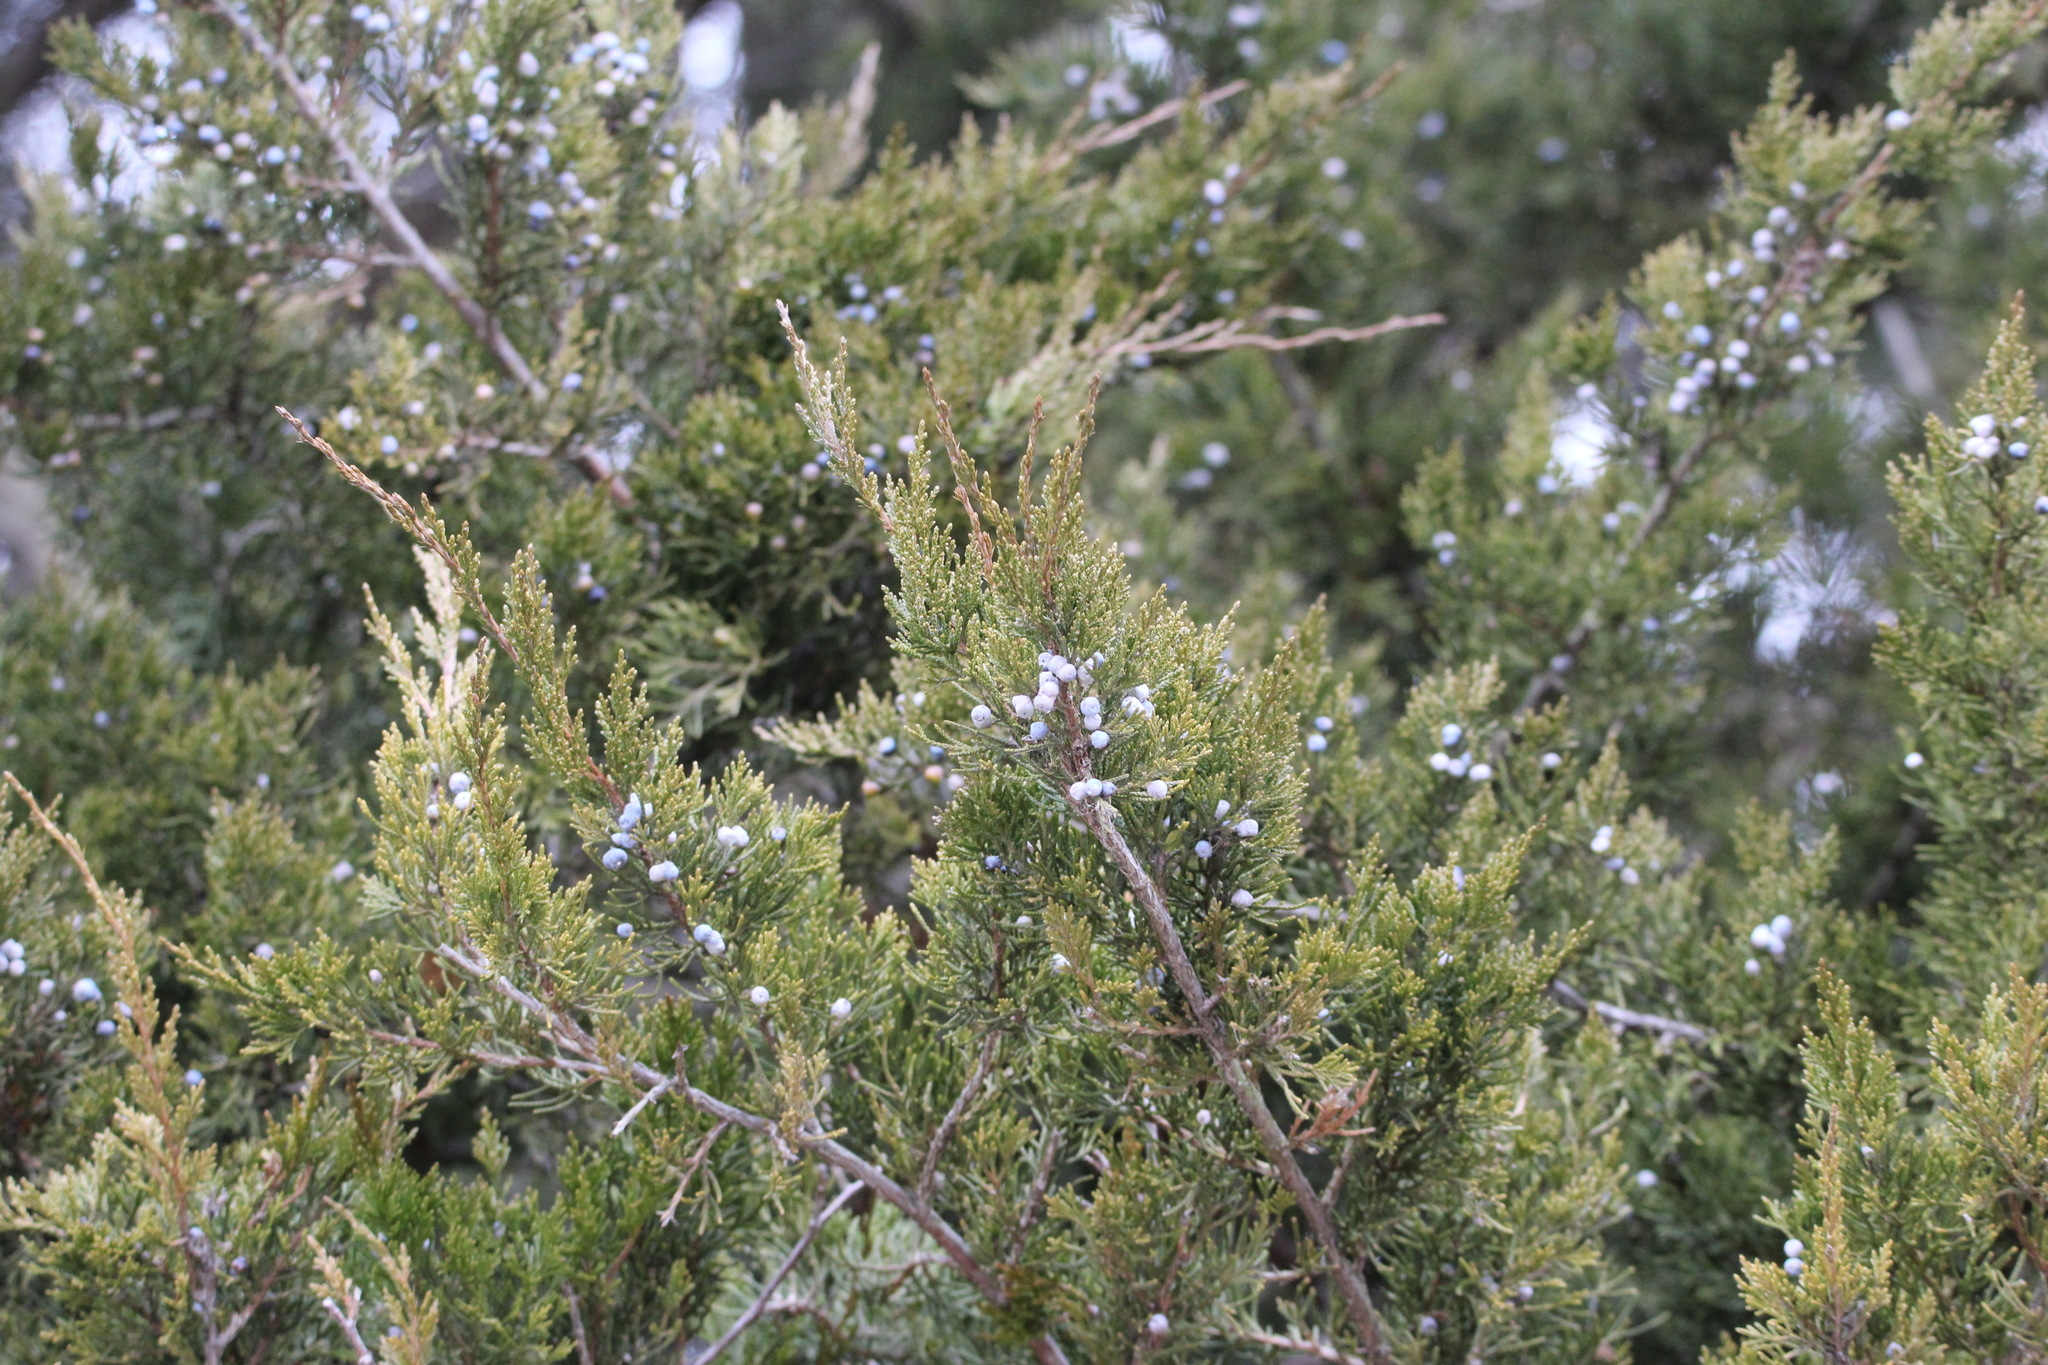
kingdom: Plantae
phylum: Tracheophyta
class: Pinopsida
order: Pinales
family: Cupressaceae
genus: Juniperus
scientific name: Juniperus virginiana
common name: Red juniper
